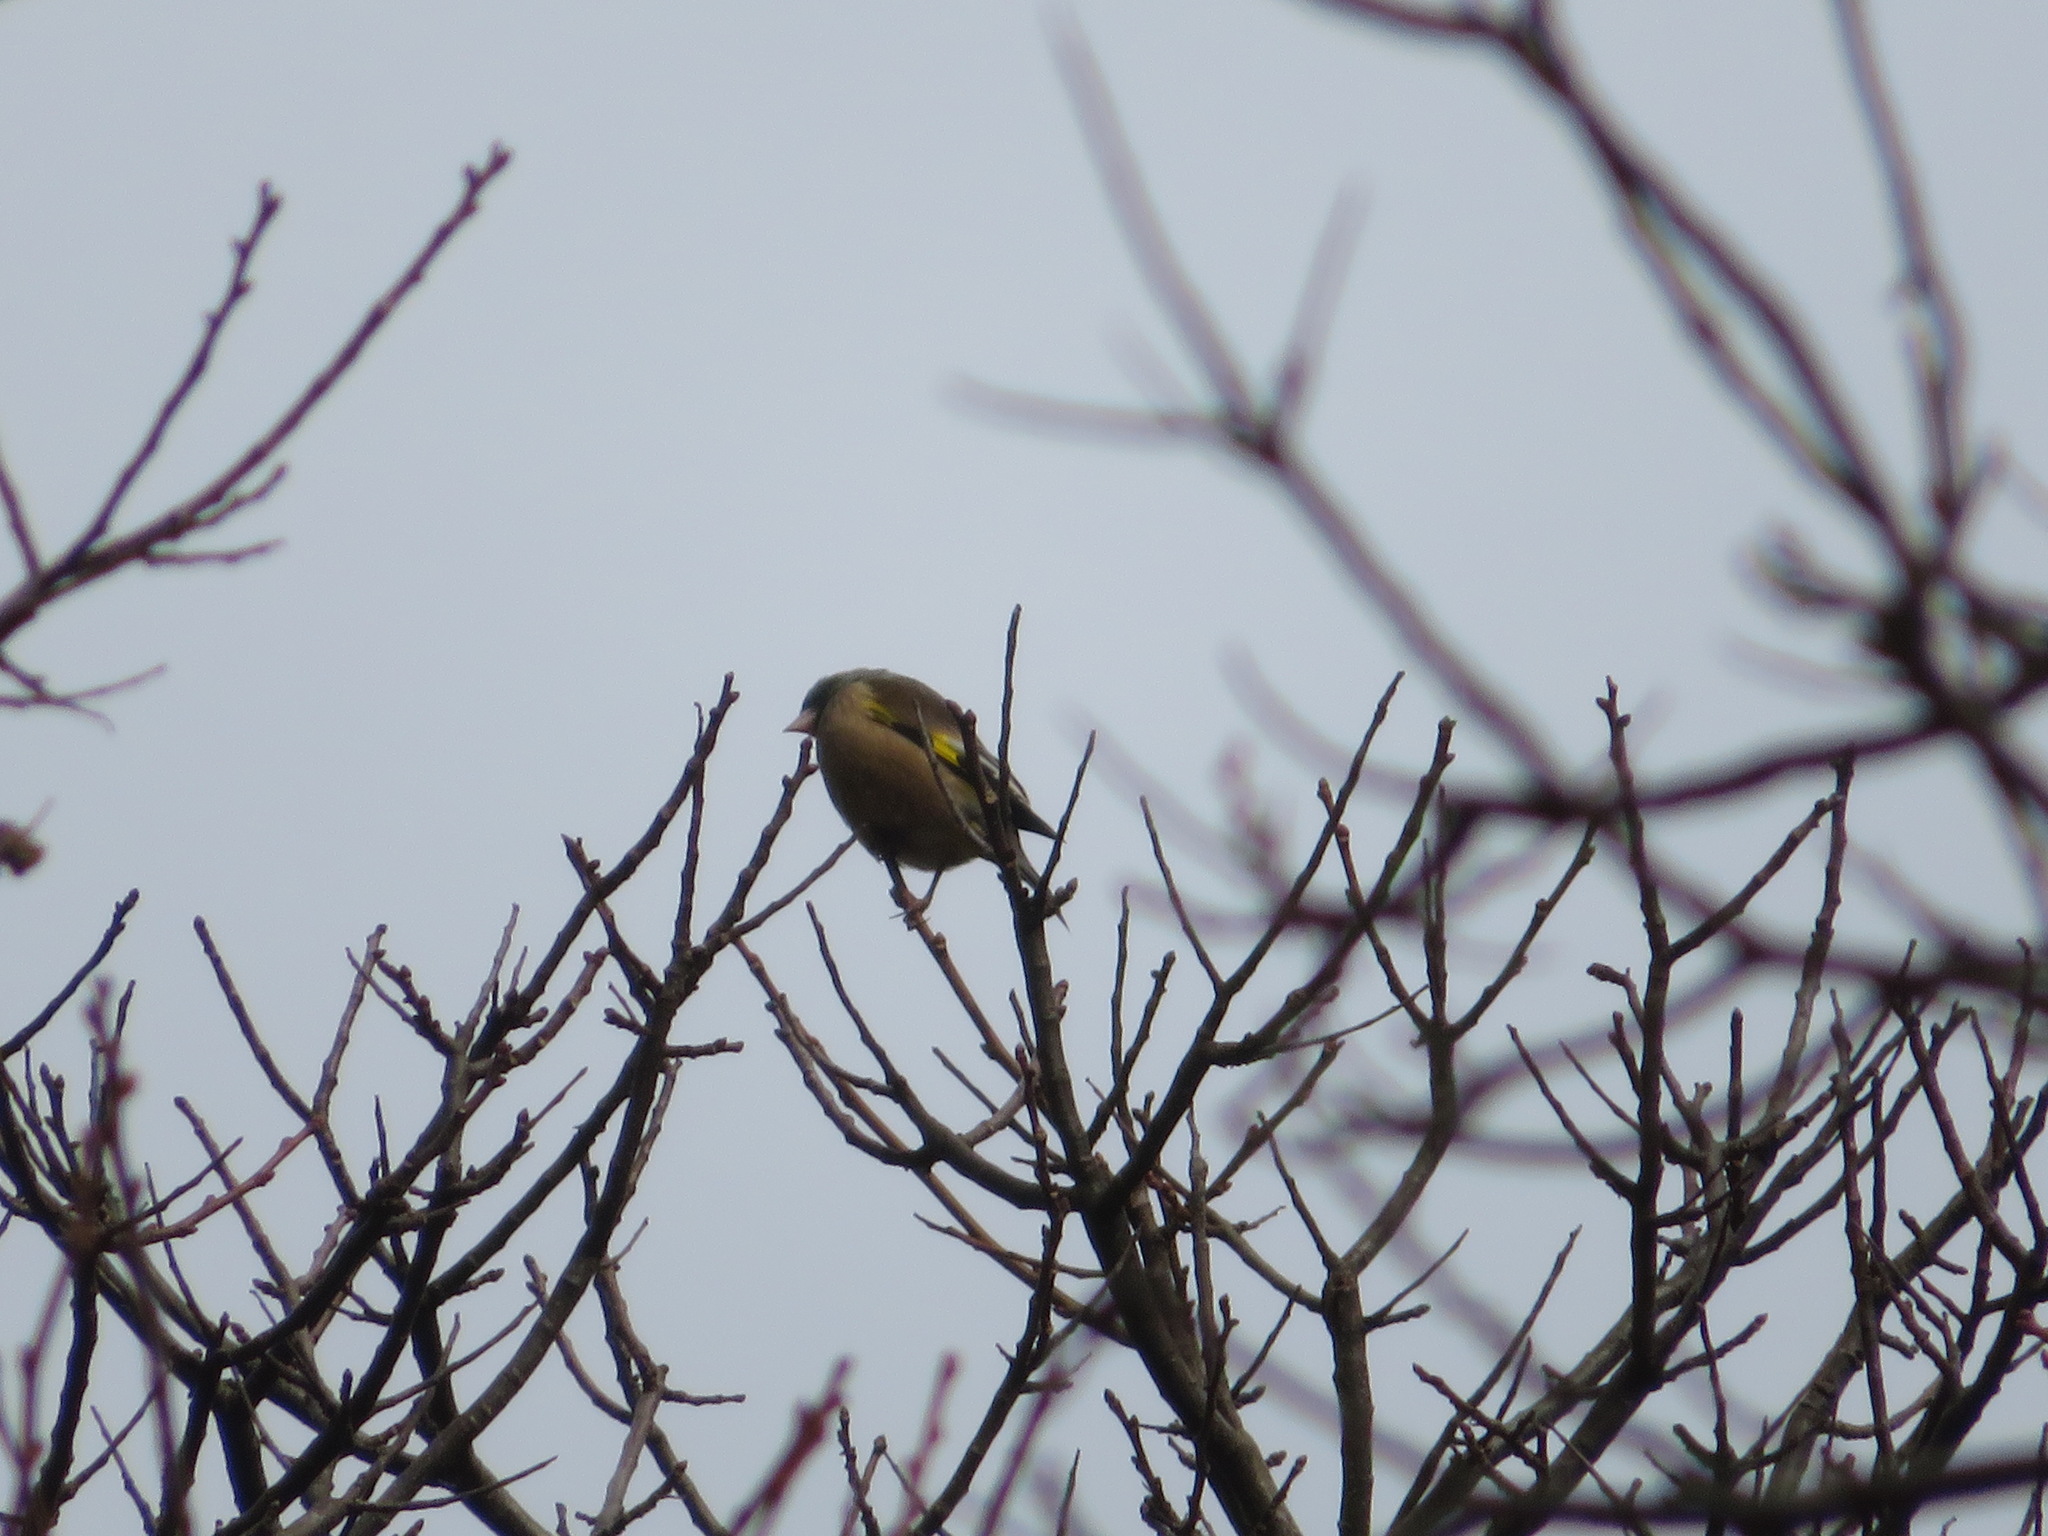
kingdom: Plantae
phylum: Tracheophyta
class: Liliopsida
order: Poales
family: Poaceae
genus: Chloris
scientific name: Chloris sinica
